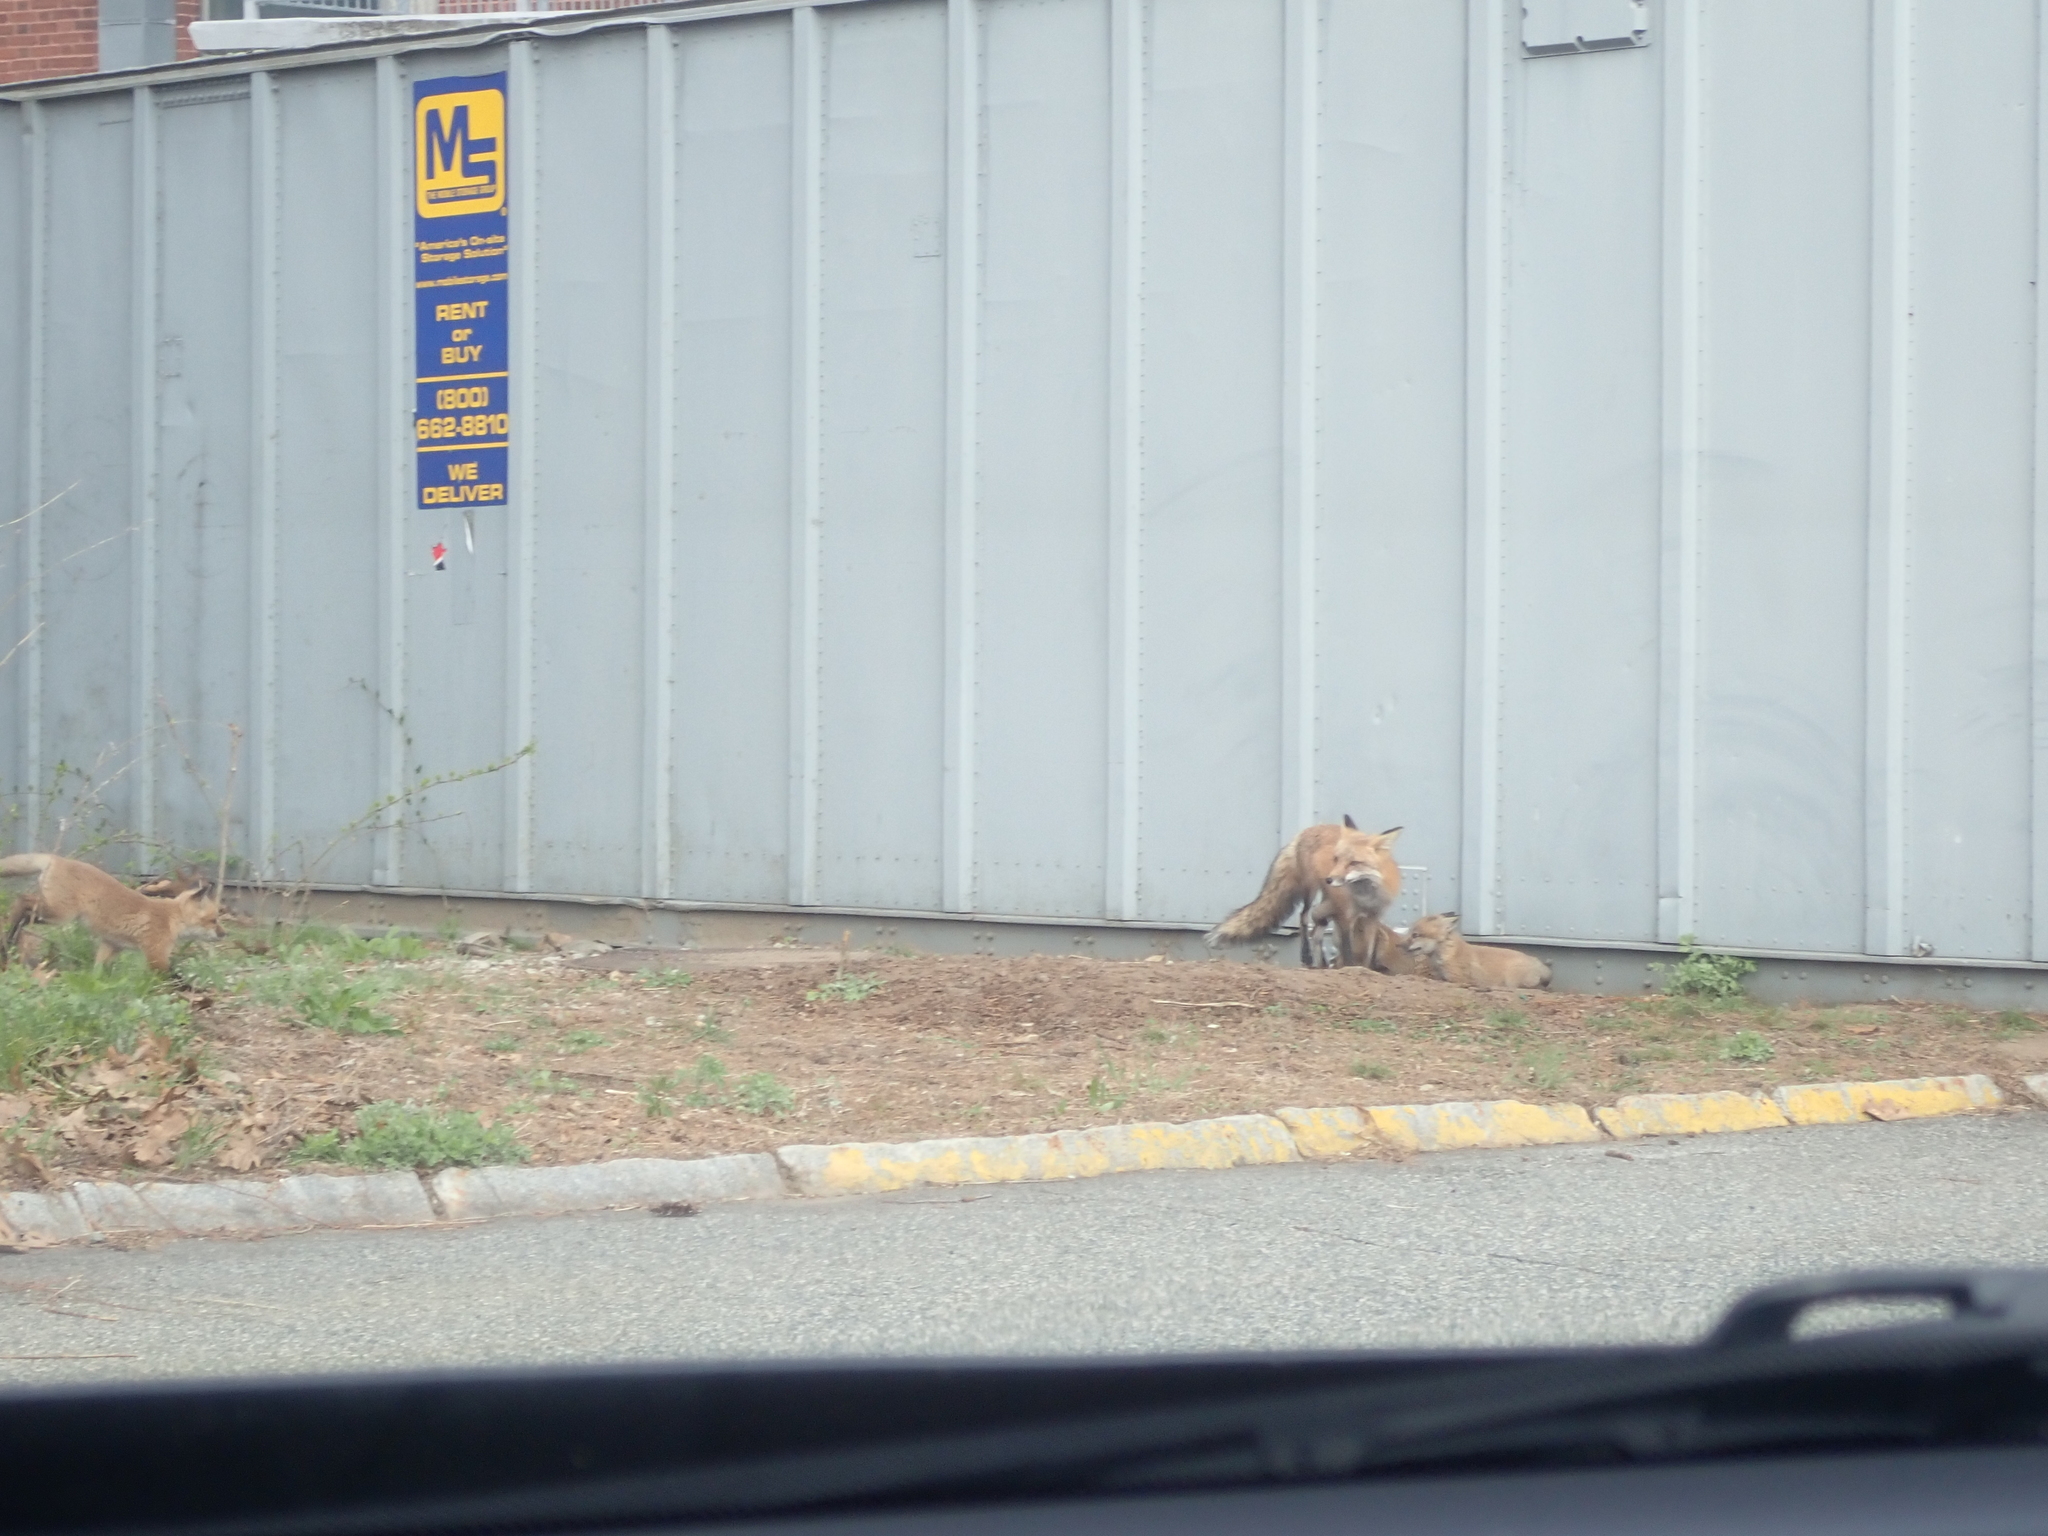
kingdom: Animalia
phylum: Chordata
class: Mammalia
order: Carnivora
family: Canidae
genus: Vulpes
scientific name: Vulpes vulpes
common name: Red fox
